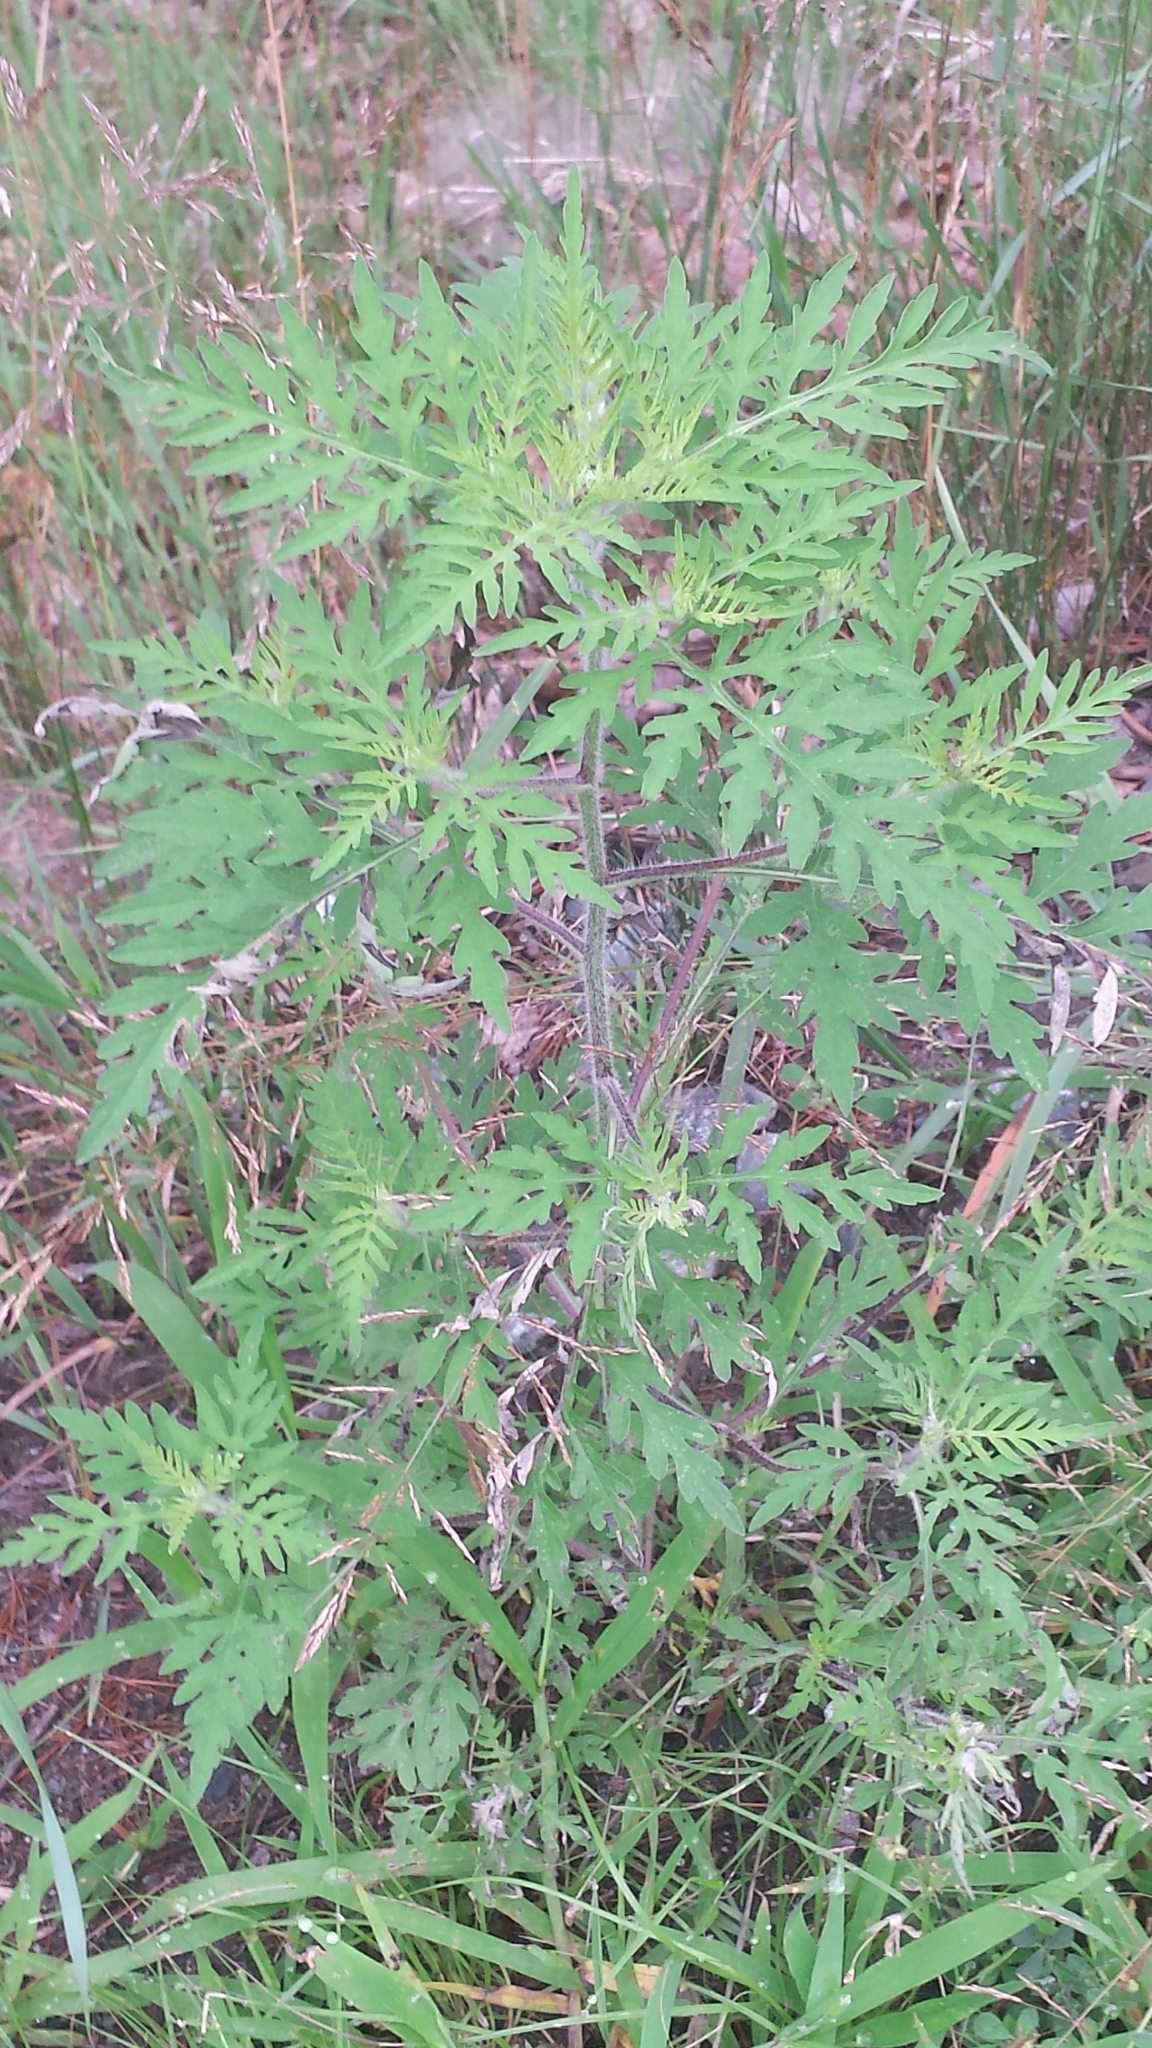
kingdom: Plantae
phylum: Tracheophyta
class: Magnoliopsida
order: Asterales
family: Asteraceae
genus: Ambrosia
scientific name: Ambrosia artemisiifolia
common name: Annual ragweed
